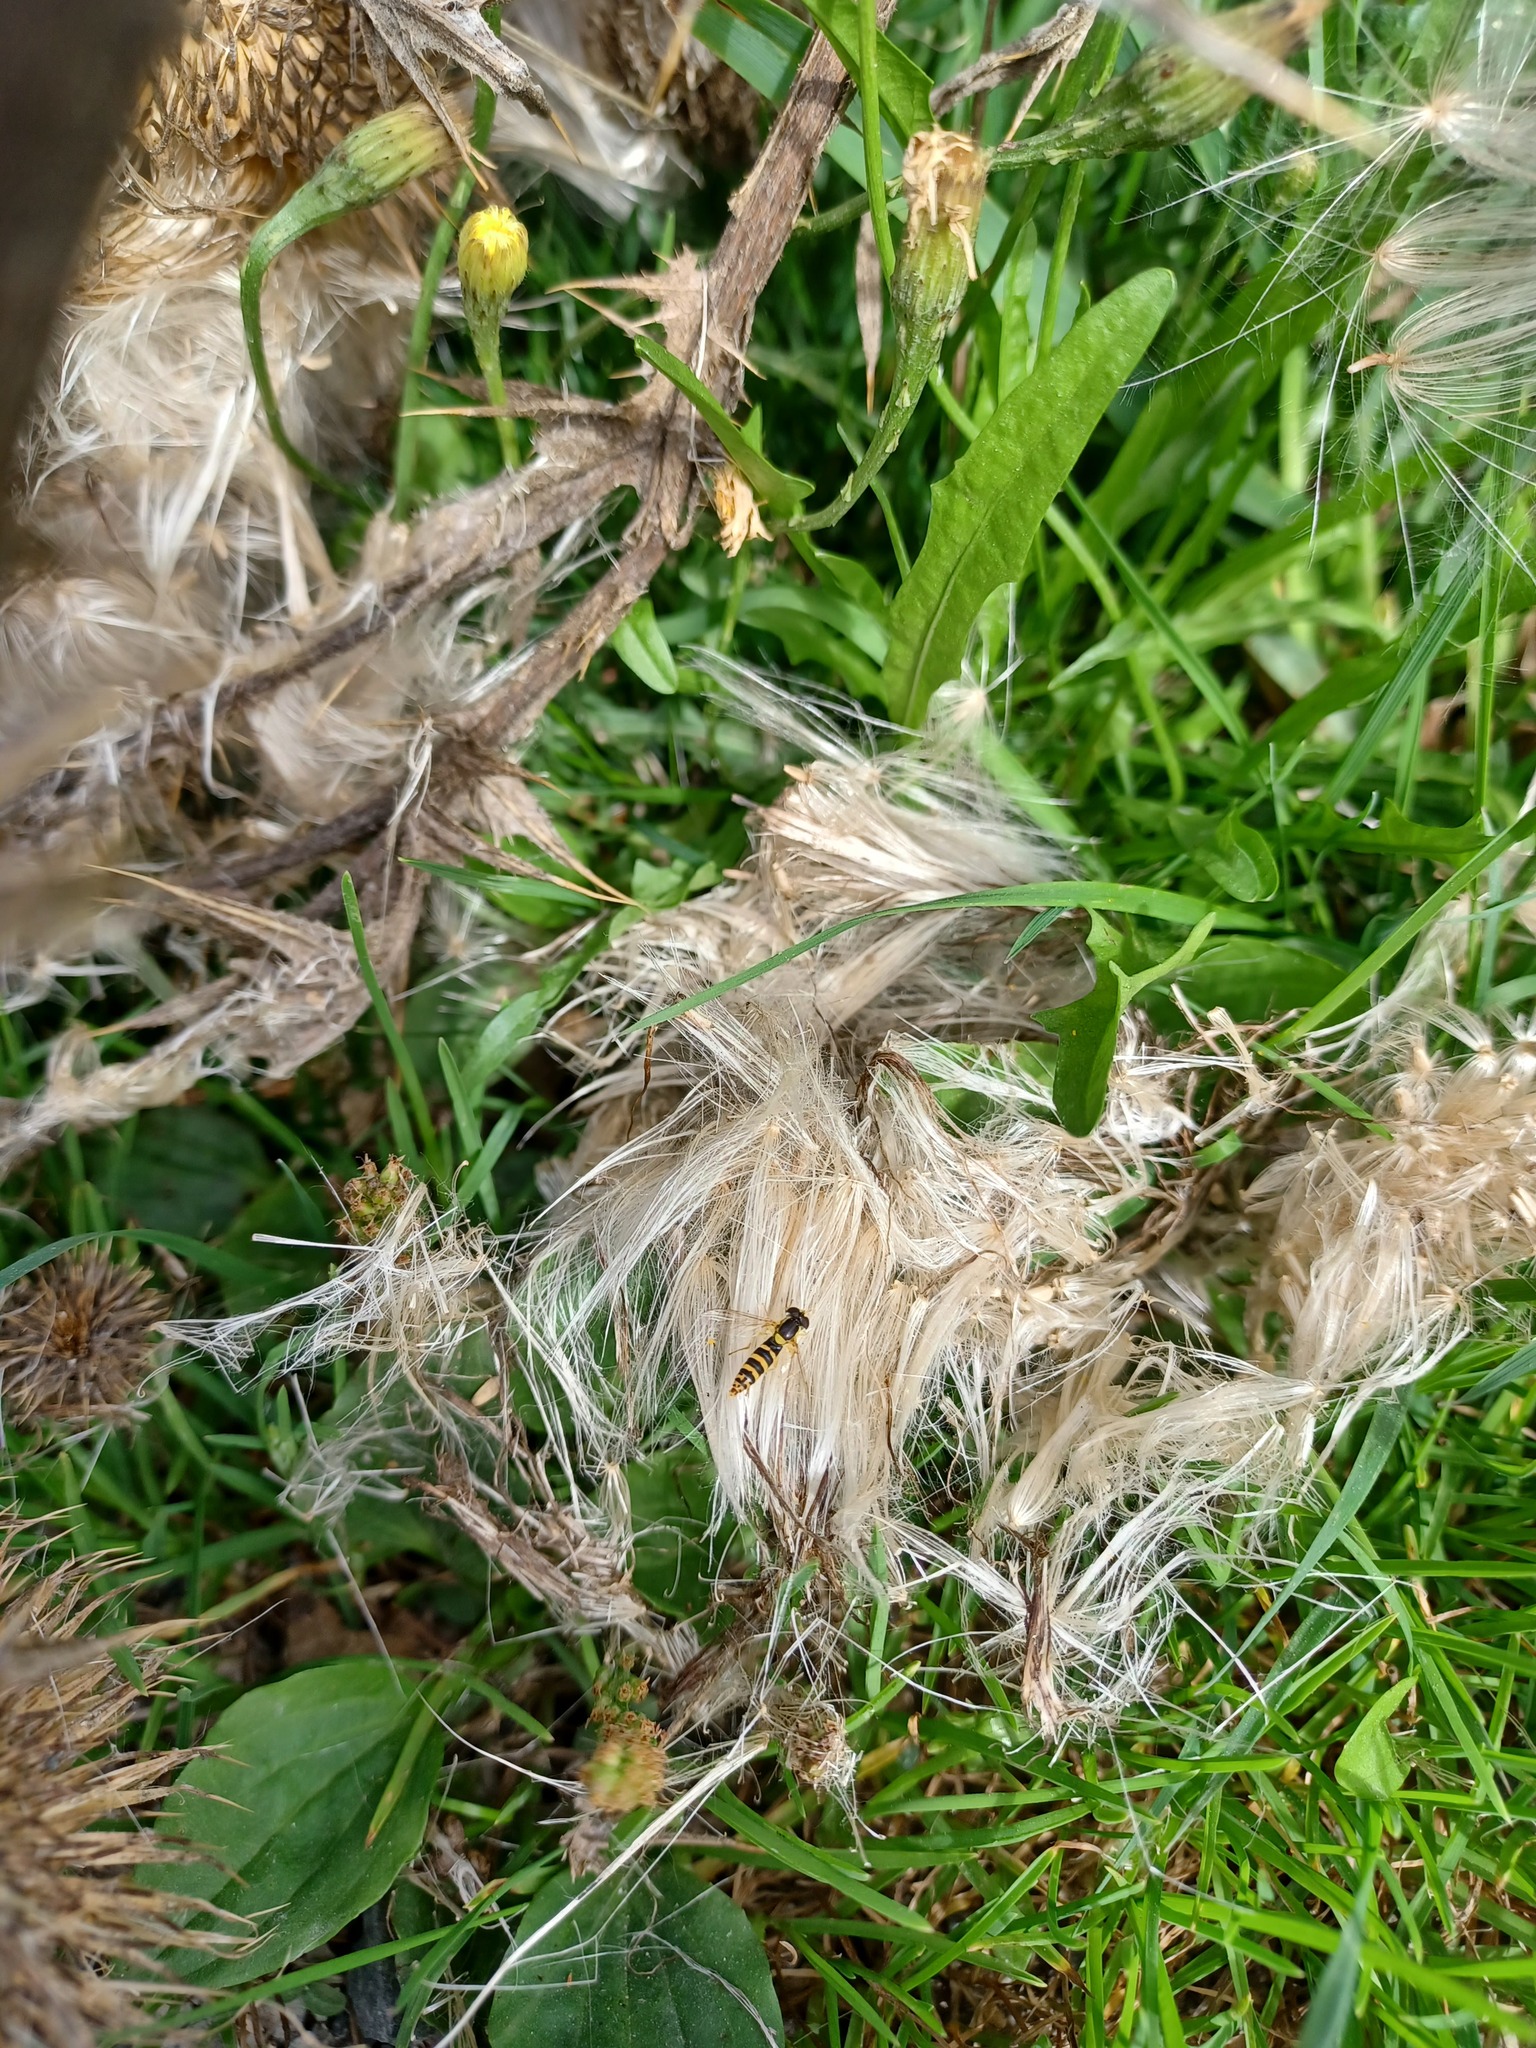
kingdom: Plantae
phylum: Tracheophyta
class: Magnoliopsida
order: Asterales
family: Asteraceae
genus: Cirsium
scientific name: Cirsium vulgare
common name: Bull thistle
